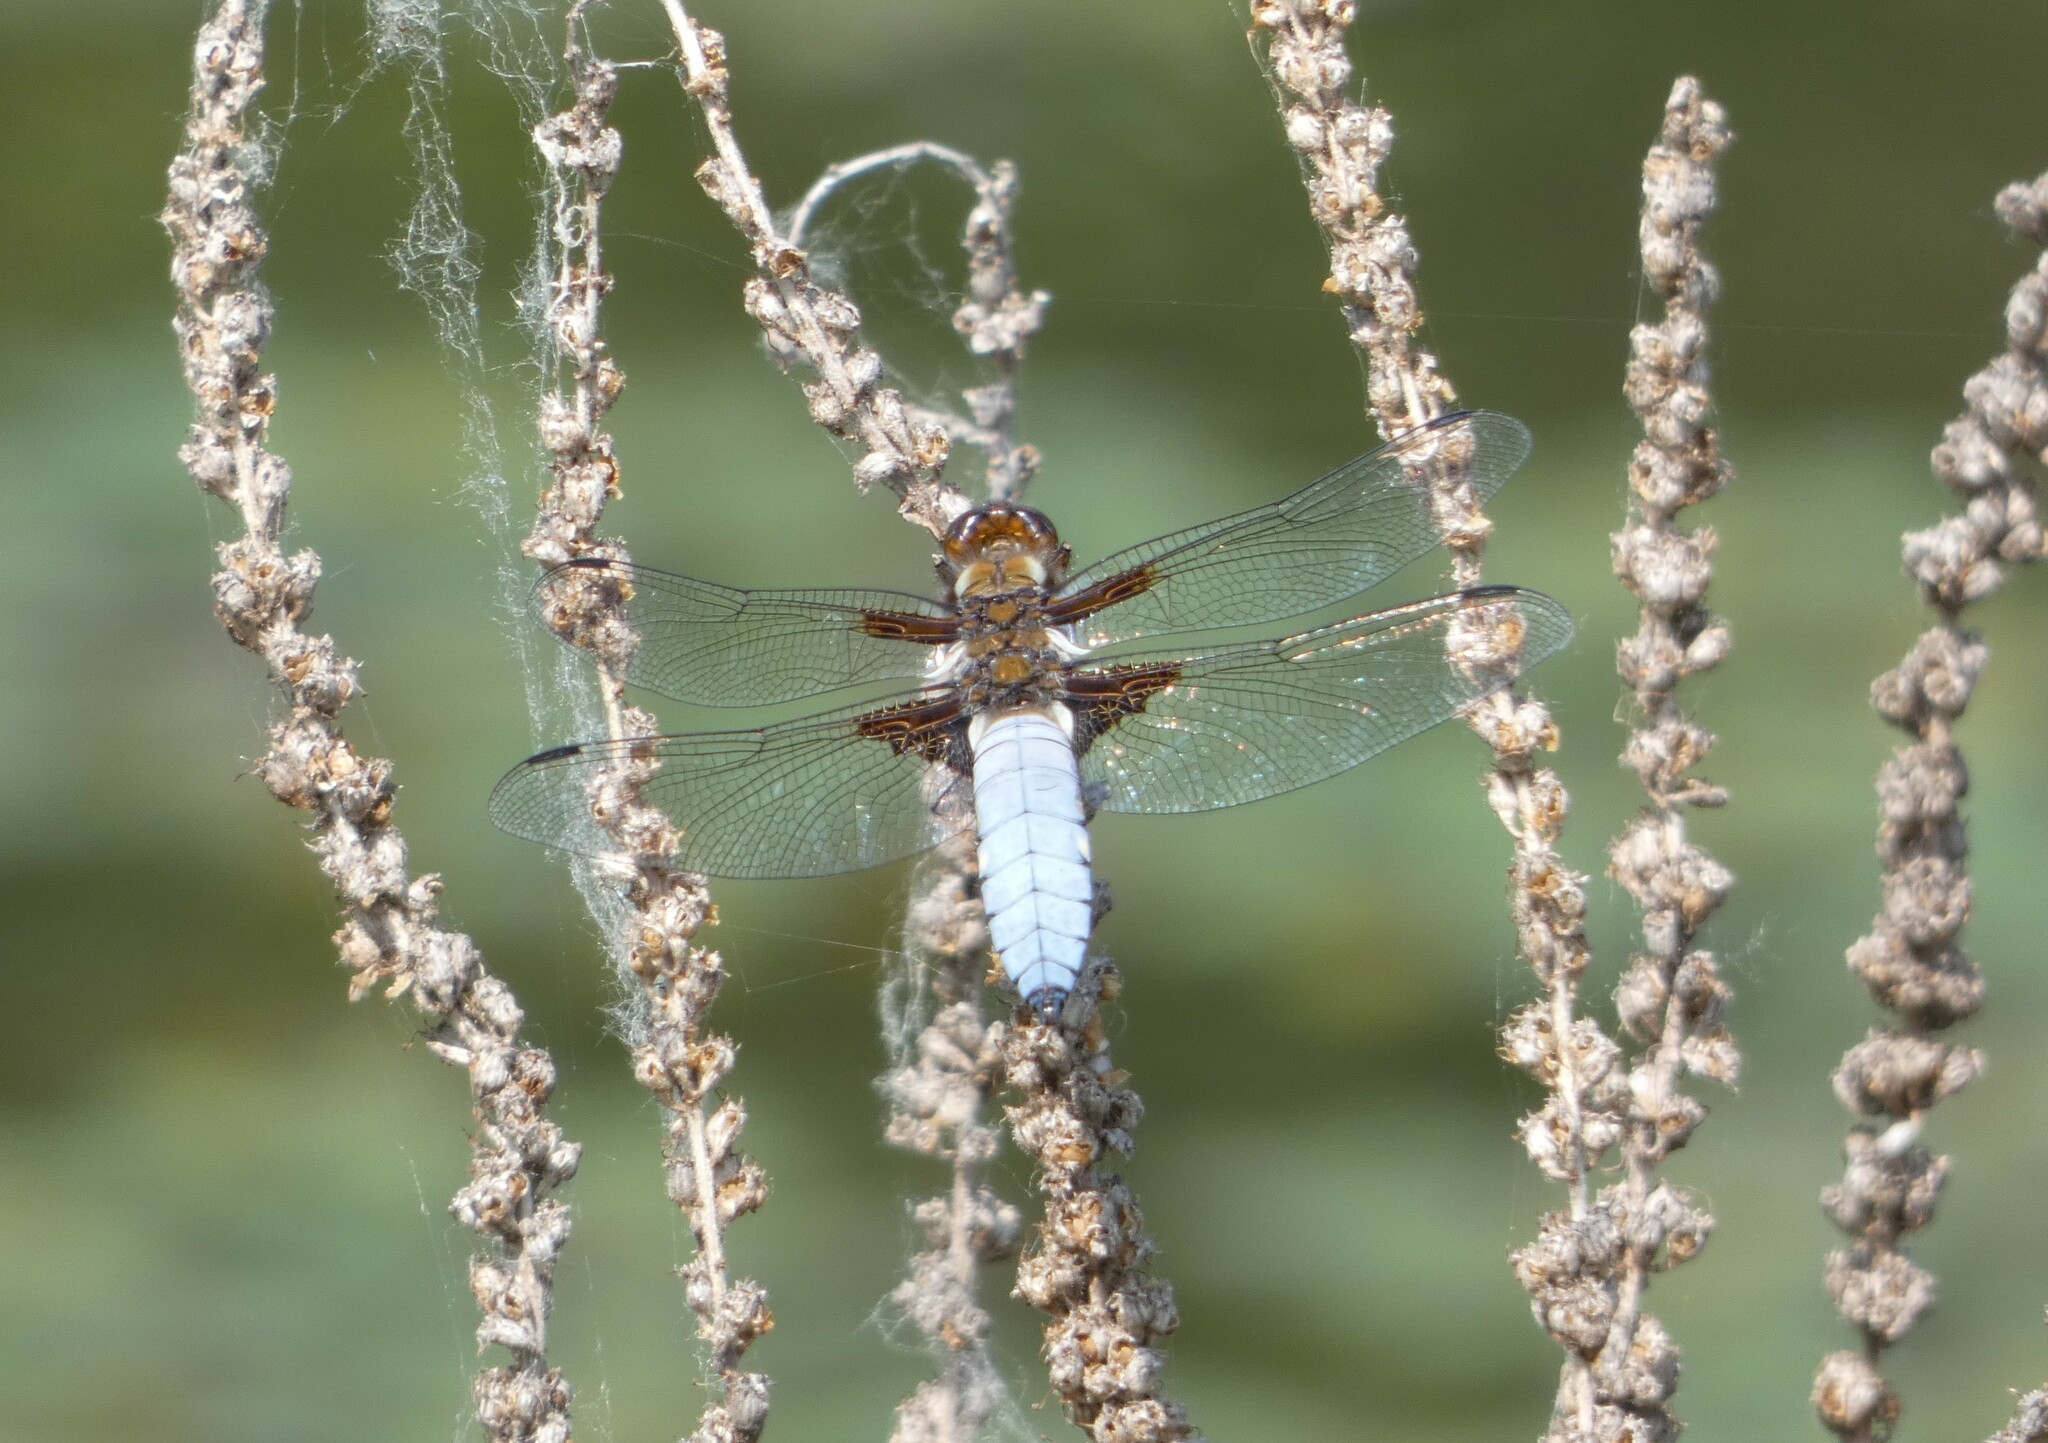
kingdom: Animalia
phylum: Arthropoda
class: Insecta
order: Odonata
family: Libellulidae
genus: Libellula
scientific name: Libellula depressa
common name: Broad-bodied chaser
